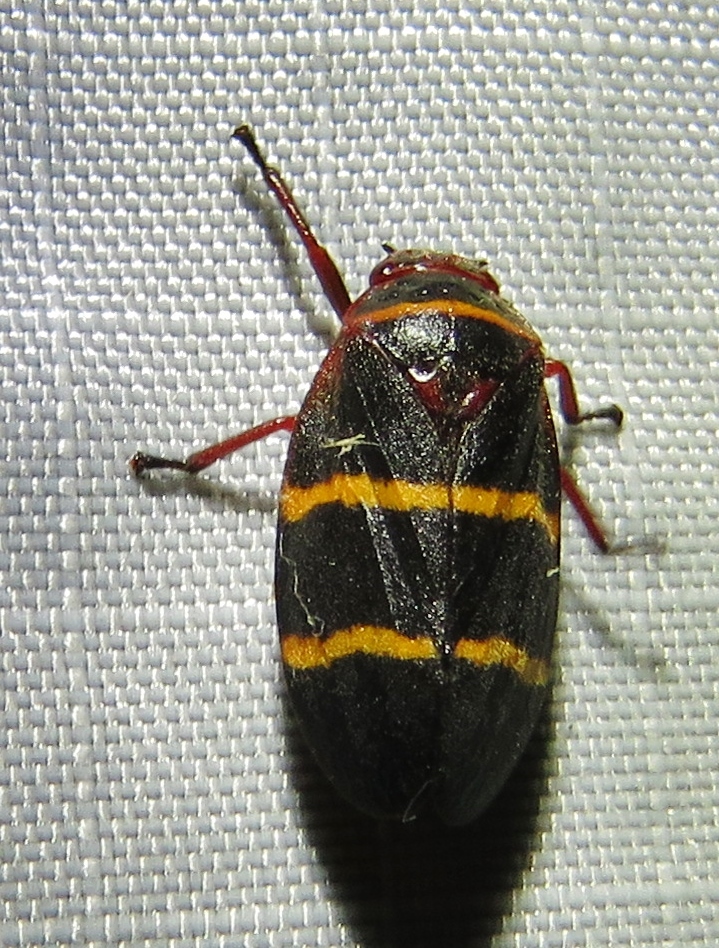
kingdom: Animalia
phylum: Arthropoda
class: Insecta
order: Hemiptera
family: Cercopidae
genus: Prosapia
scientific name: Prosapia bicincta
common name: Twolined spittlebug
